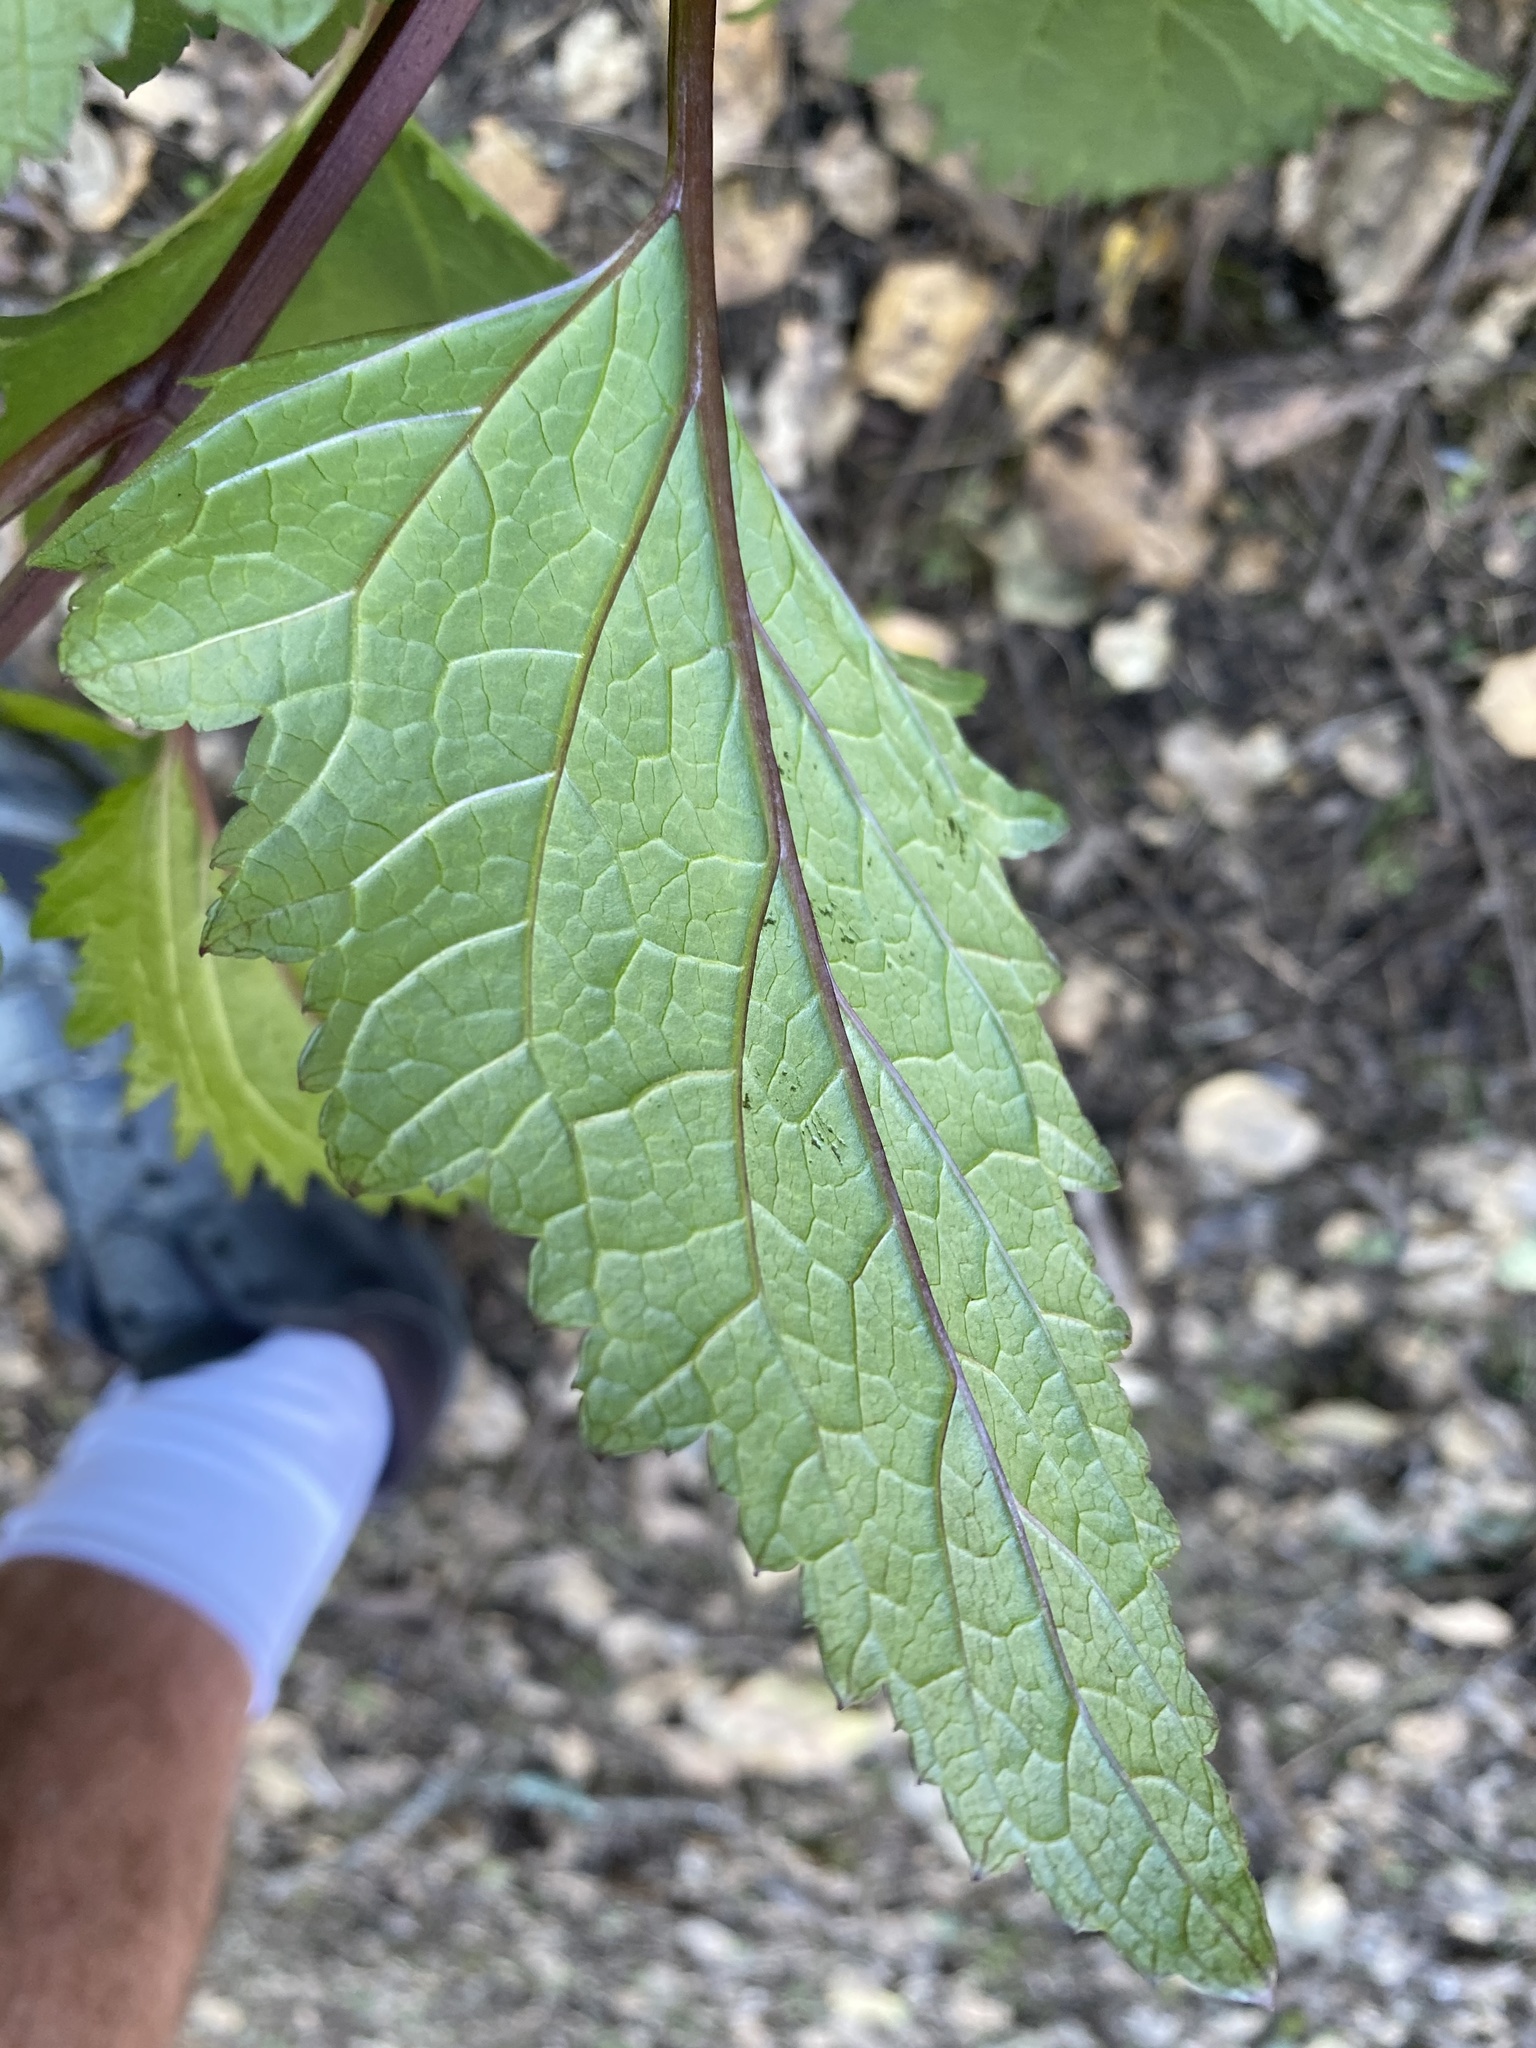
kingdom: Plantae
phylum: Tracheophyta
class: Magnoliopsida
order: Lamiales
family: Scrophulariaceae
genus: Scrophularia
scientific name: Scrophularia californica
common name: California figwort
